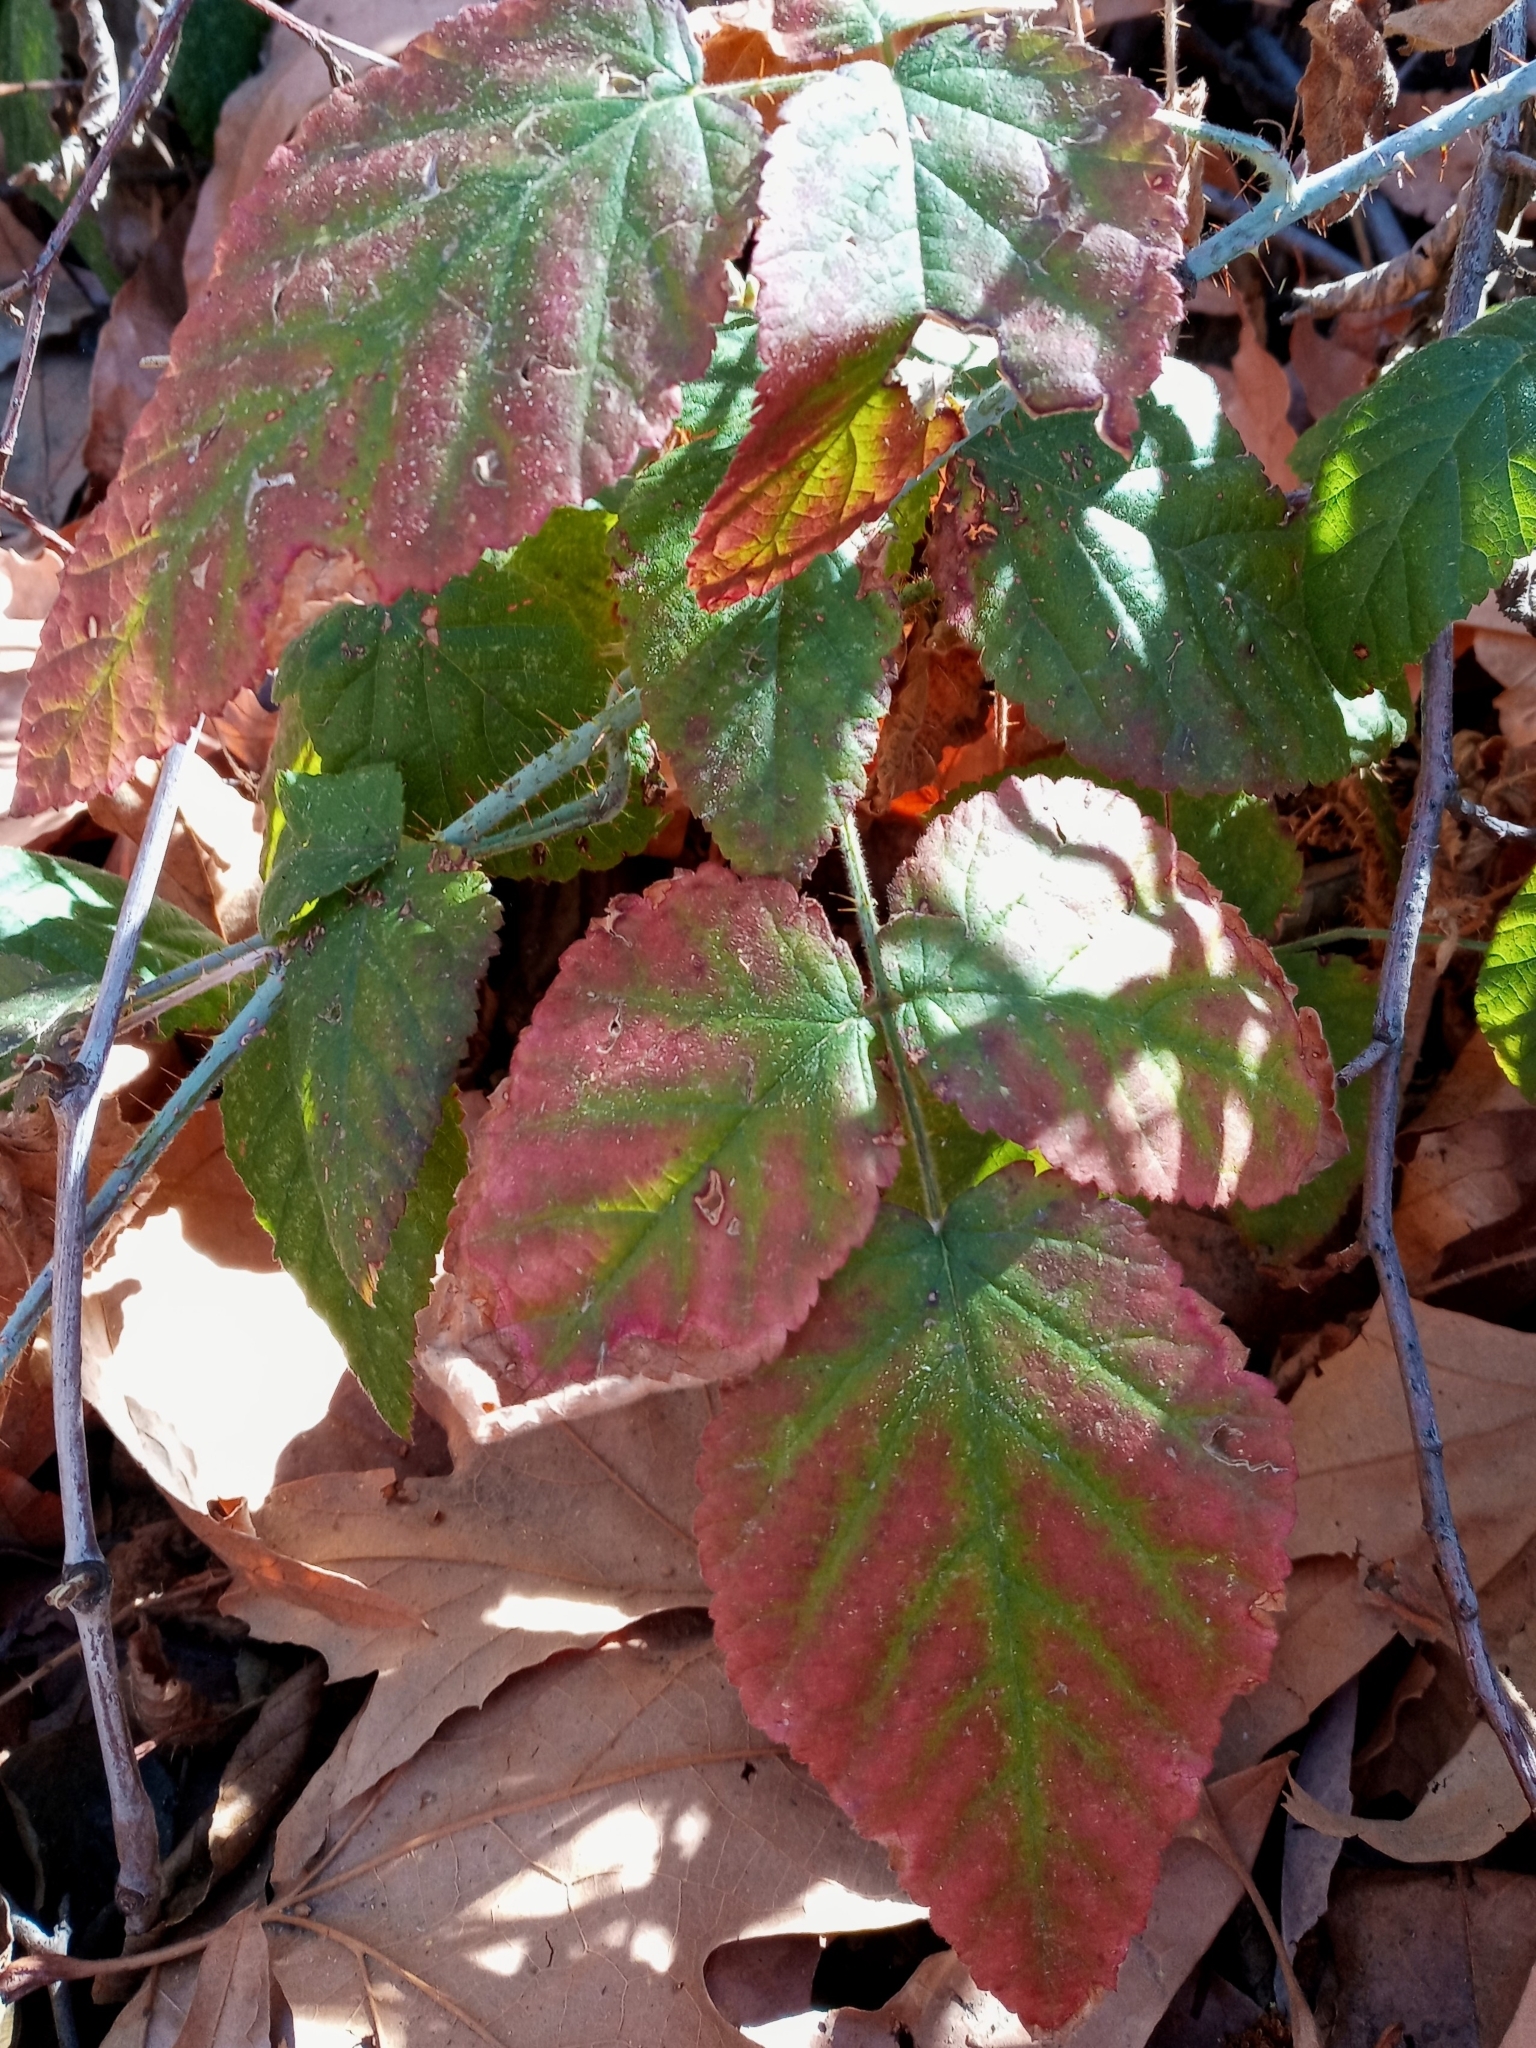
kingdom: Plantae
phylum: Tracheophyta
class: Magnoliopsida
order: Rosales
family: Rosaceae
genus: Rubus
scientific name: Rubus ursinus
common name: Pacific blackberry
